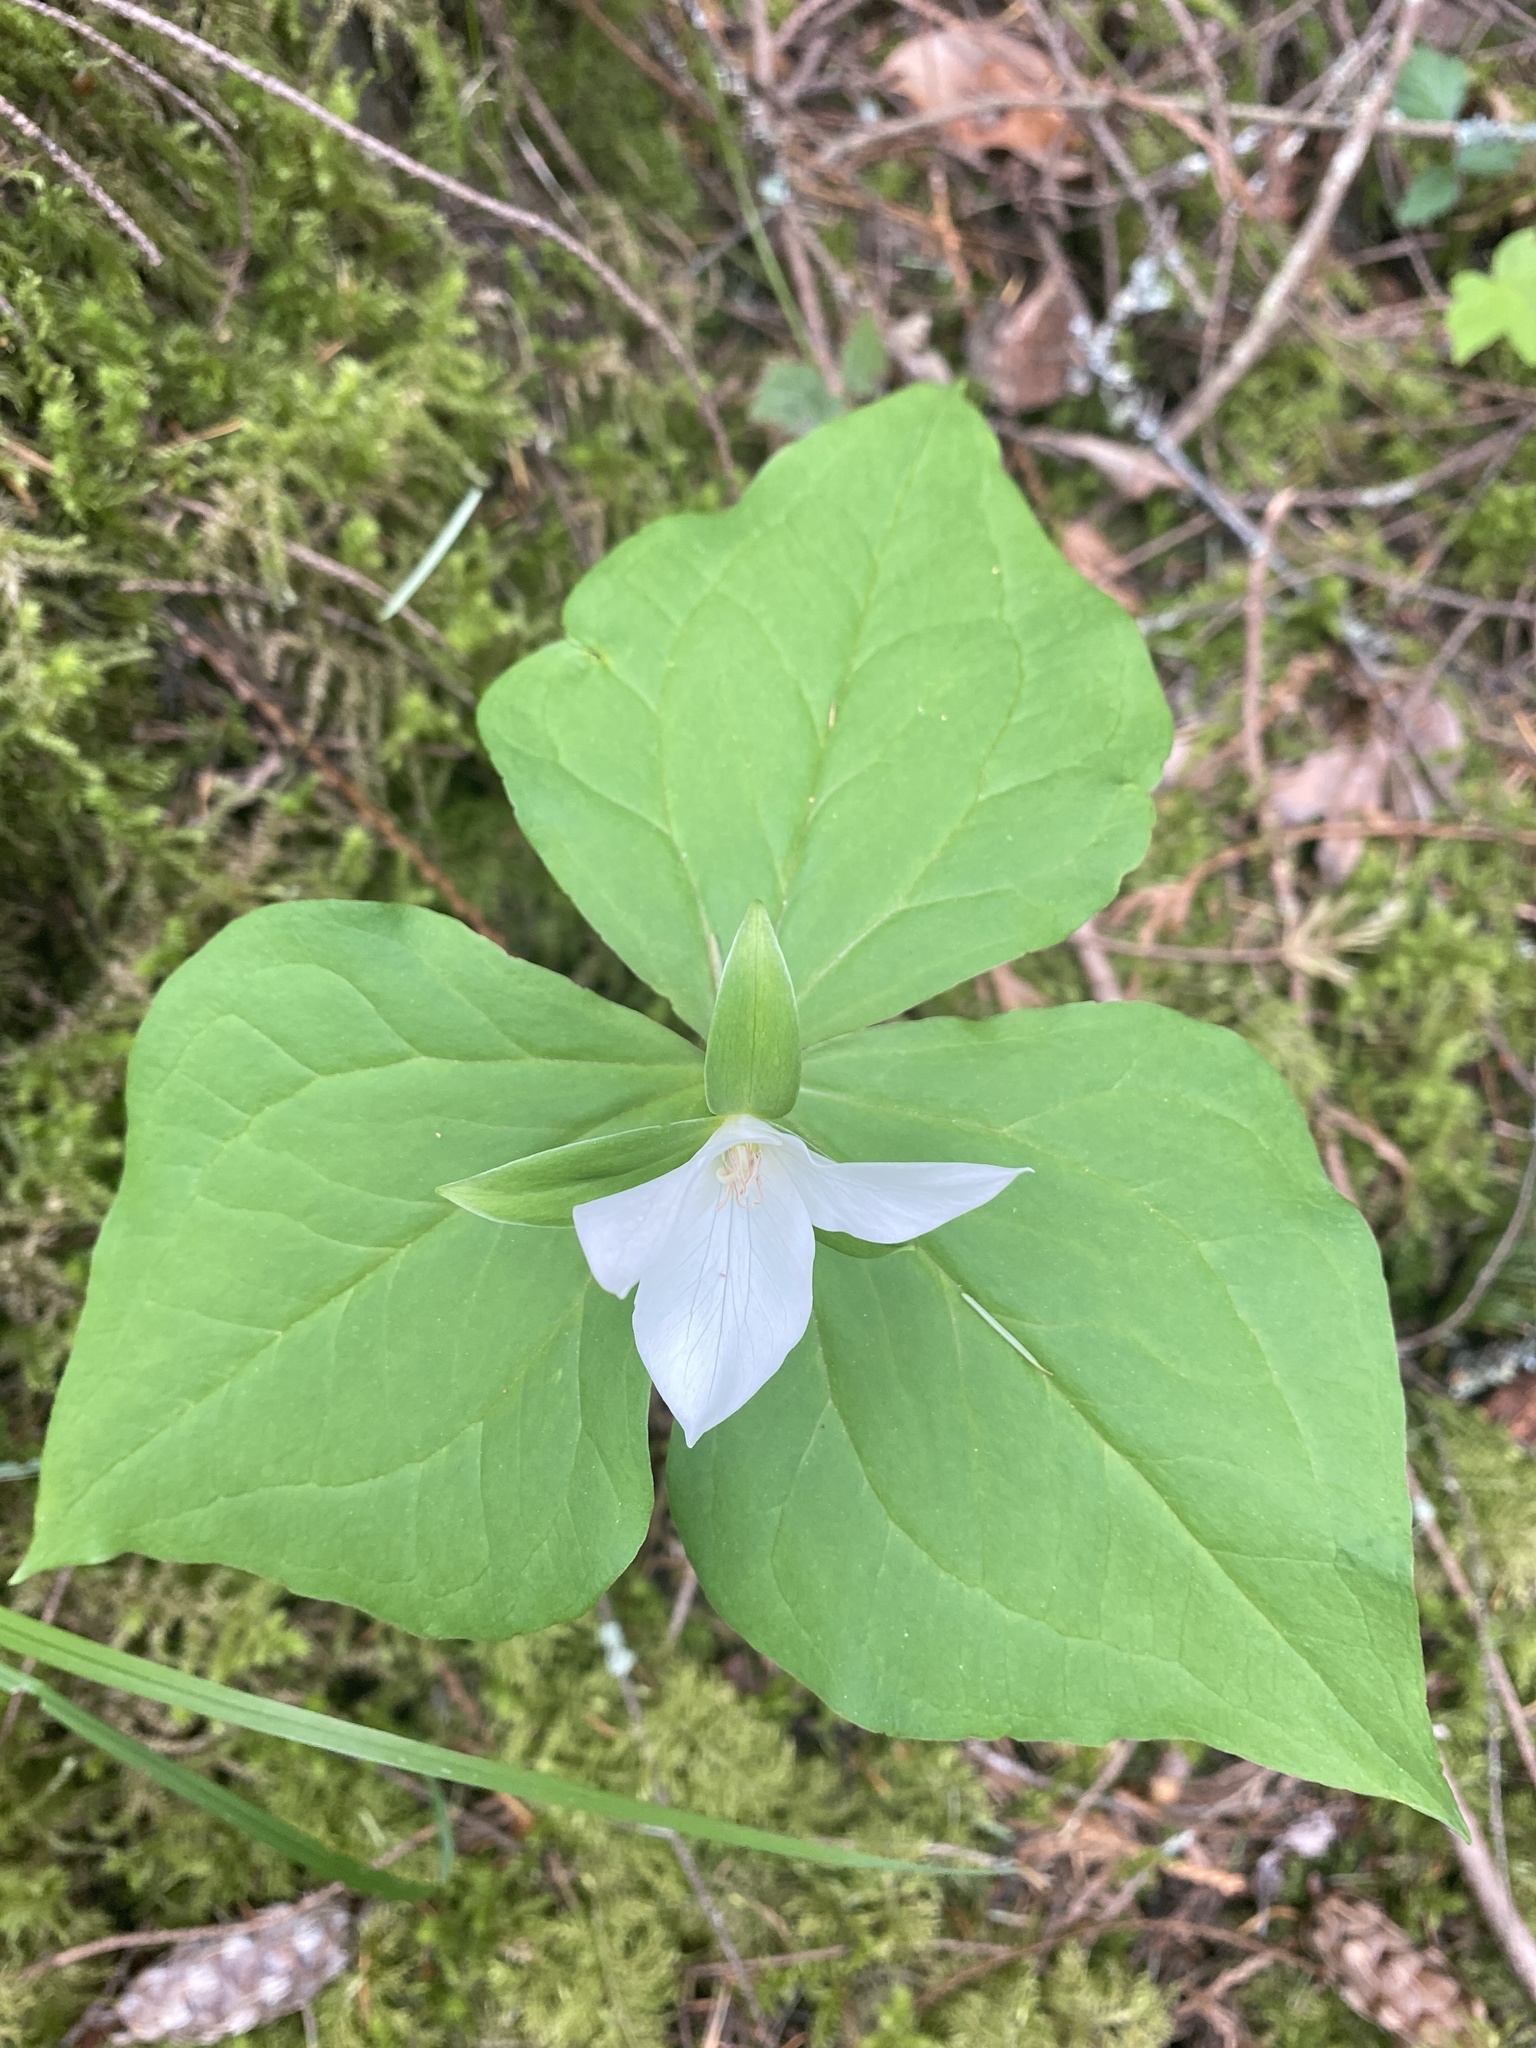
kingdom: Plantae
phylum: Tracheophyta
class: Liliopsida
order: Liliales
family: Melanthiaceae
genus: Trillium
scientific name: Trillium ovatum
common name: Pacific trillium
